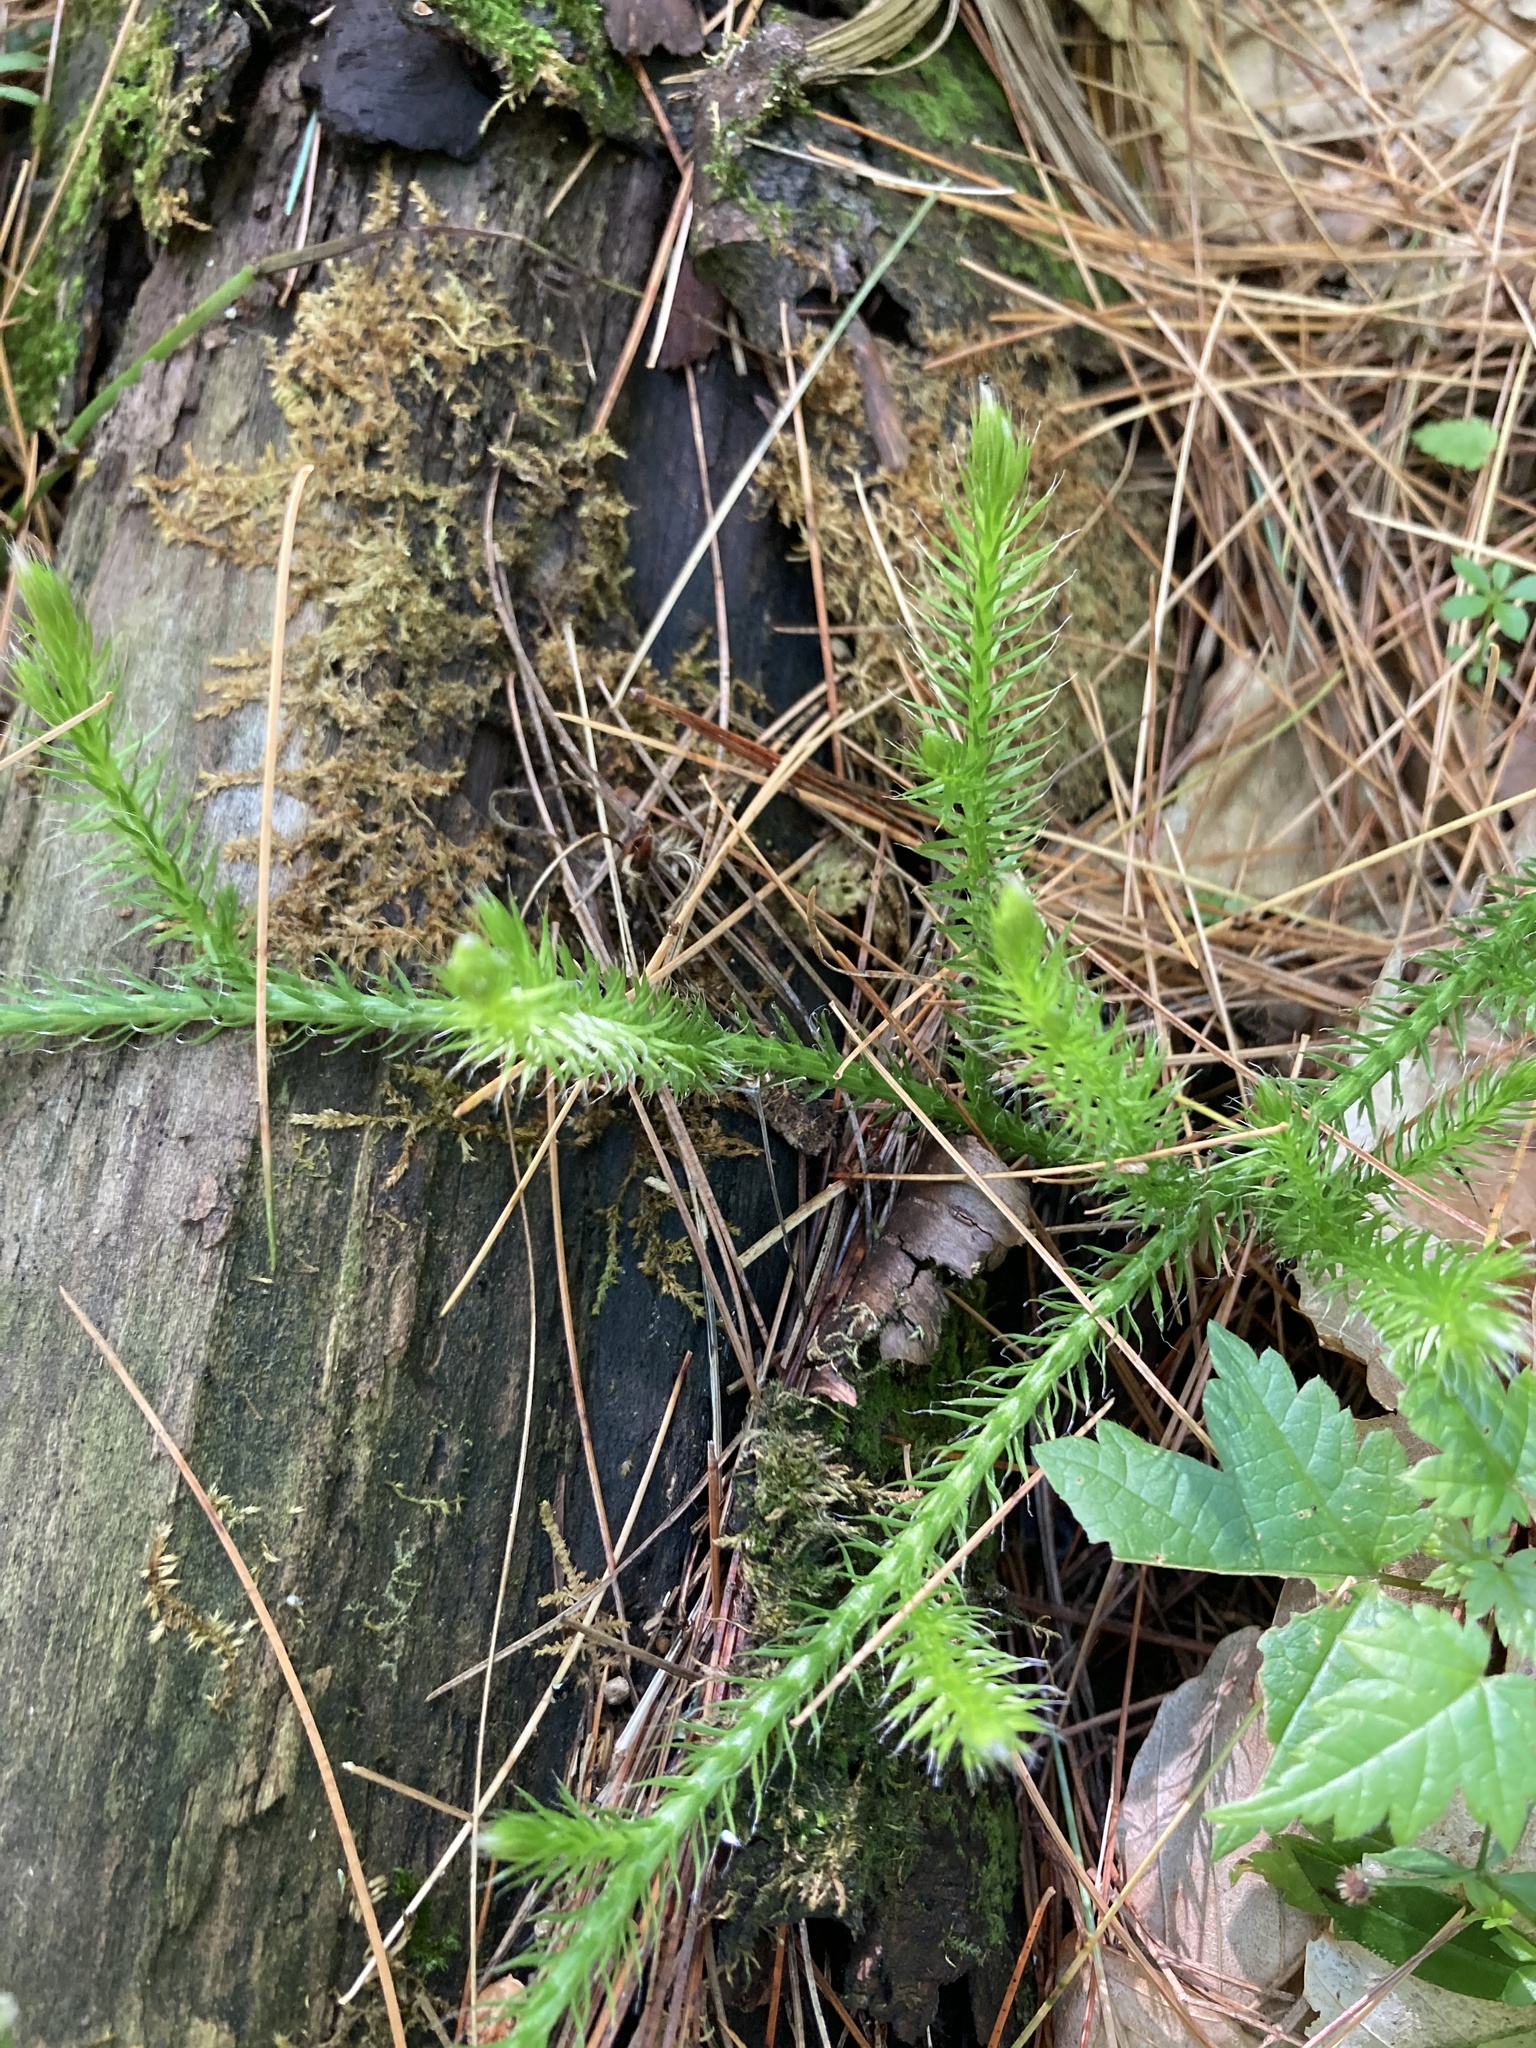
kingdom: Plantae
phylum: Tracheophyta
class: Lycopodiopsida
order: Lycopodiales
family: Lycopodiaceae
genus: Lycopodium
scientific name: Lycopodium clavatum
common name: Stag's-horn clubmoss
